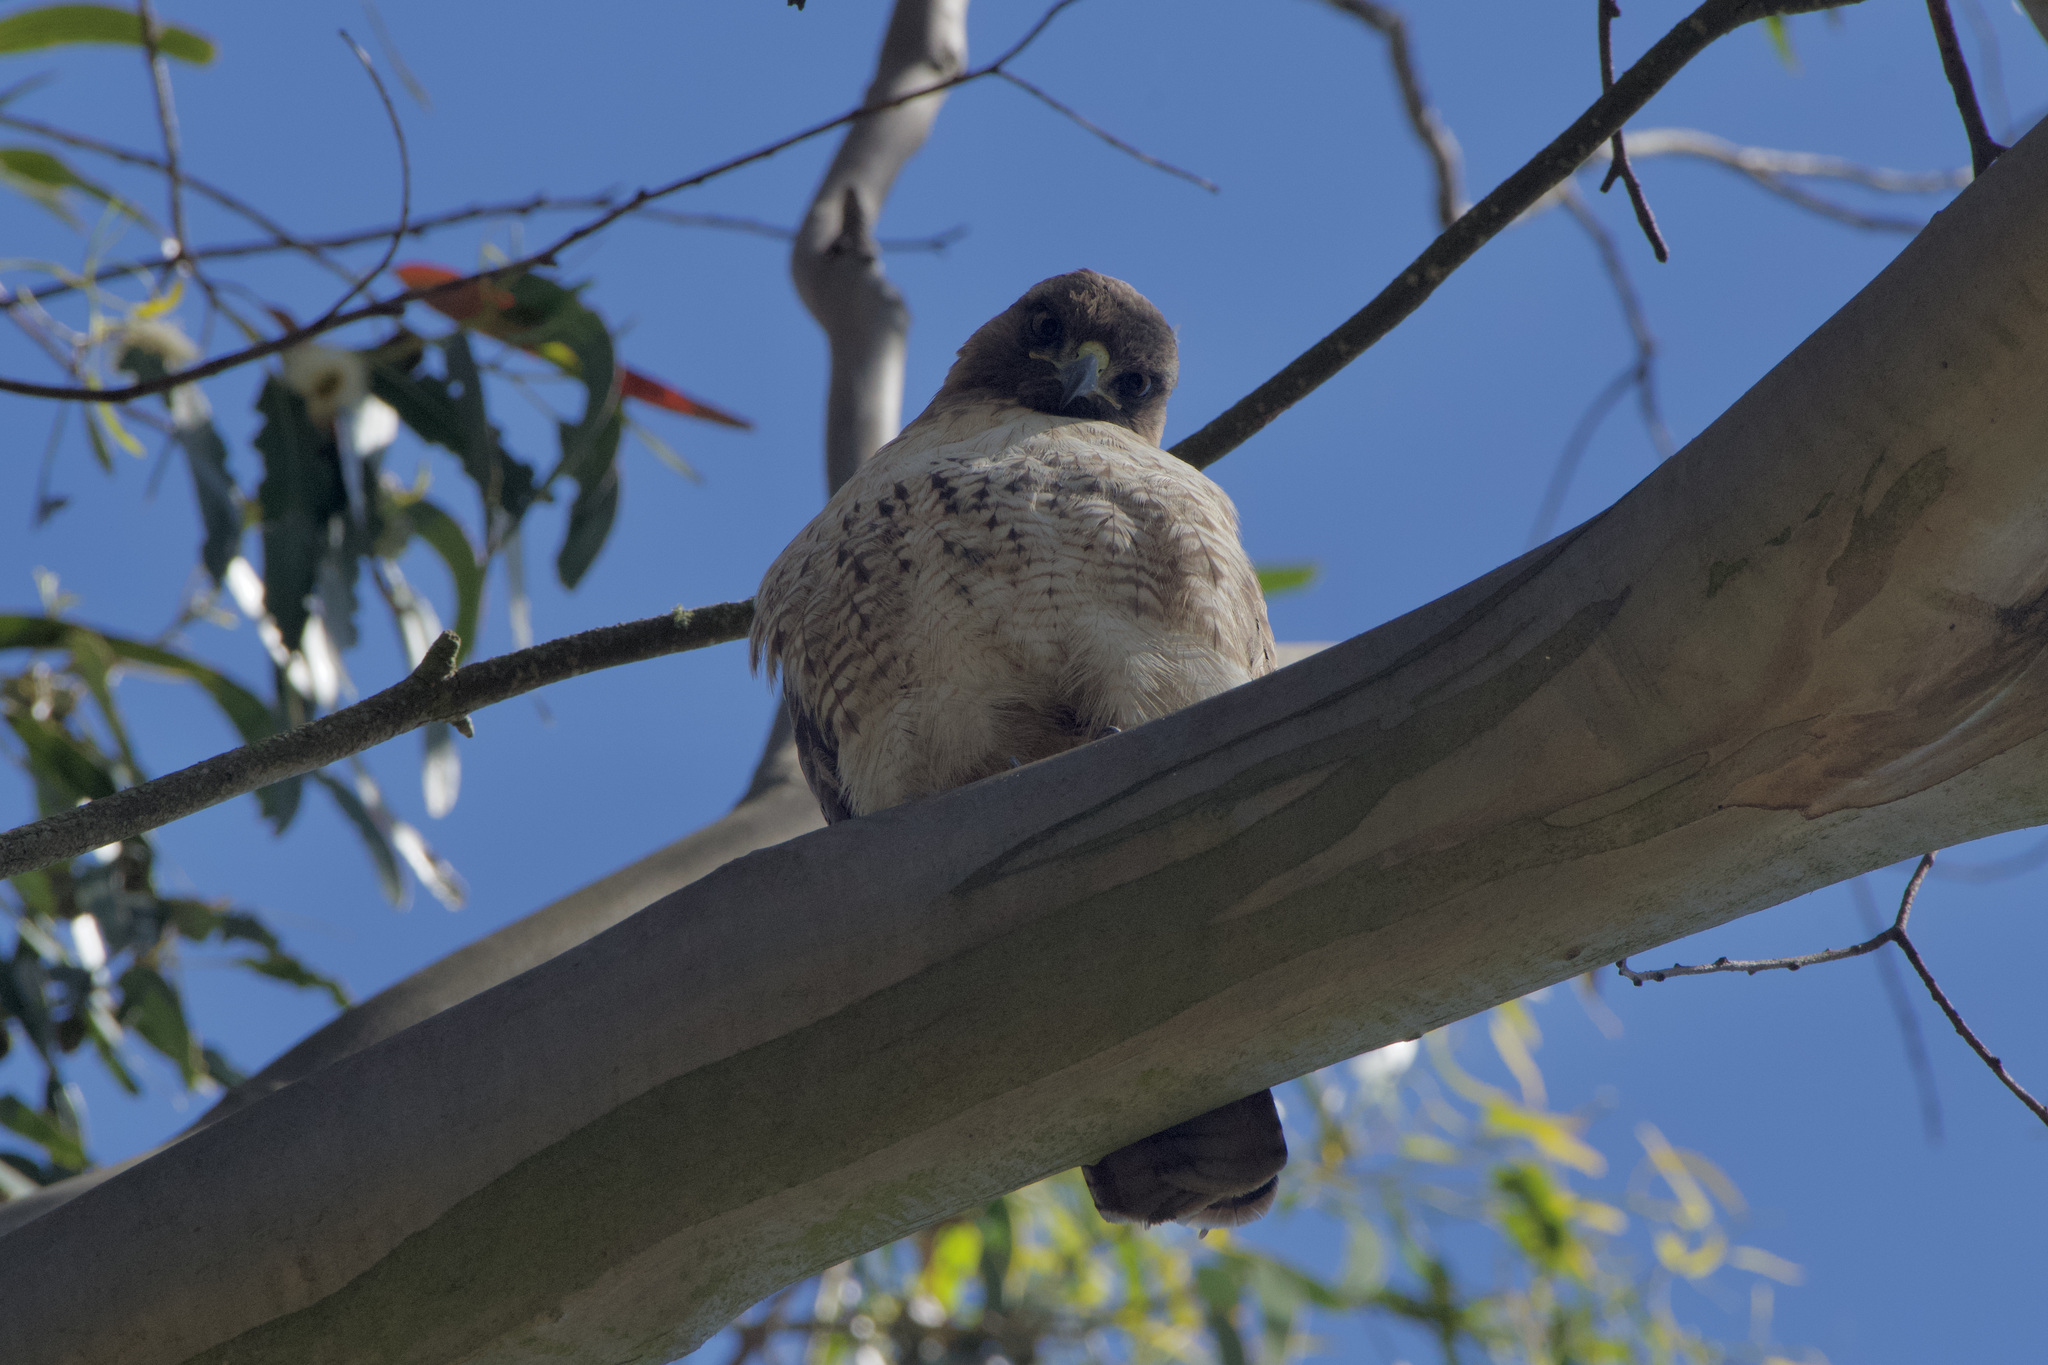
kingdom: Animalia
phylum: Chordata
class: Aves
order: Accipitriformes
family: Accipitridae
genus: Buteo
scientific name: Buteo jamaicensis
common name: Red-tailed hawk
